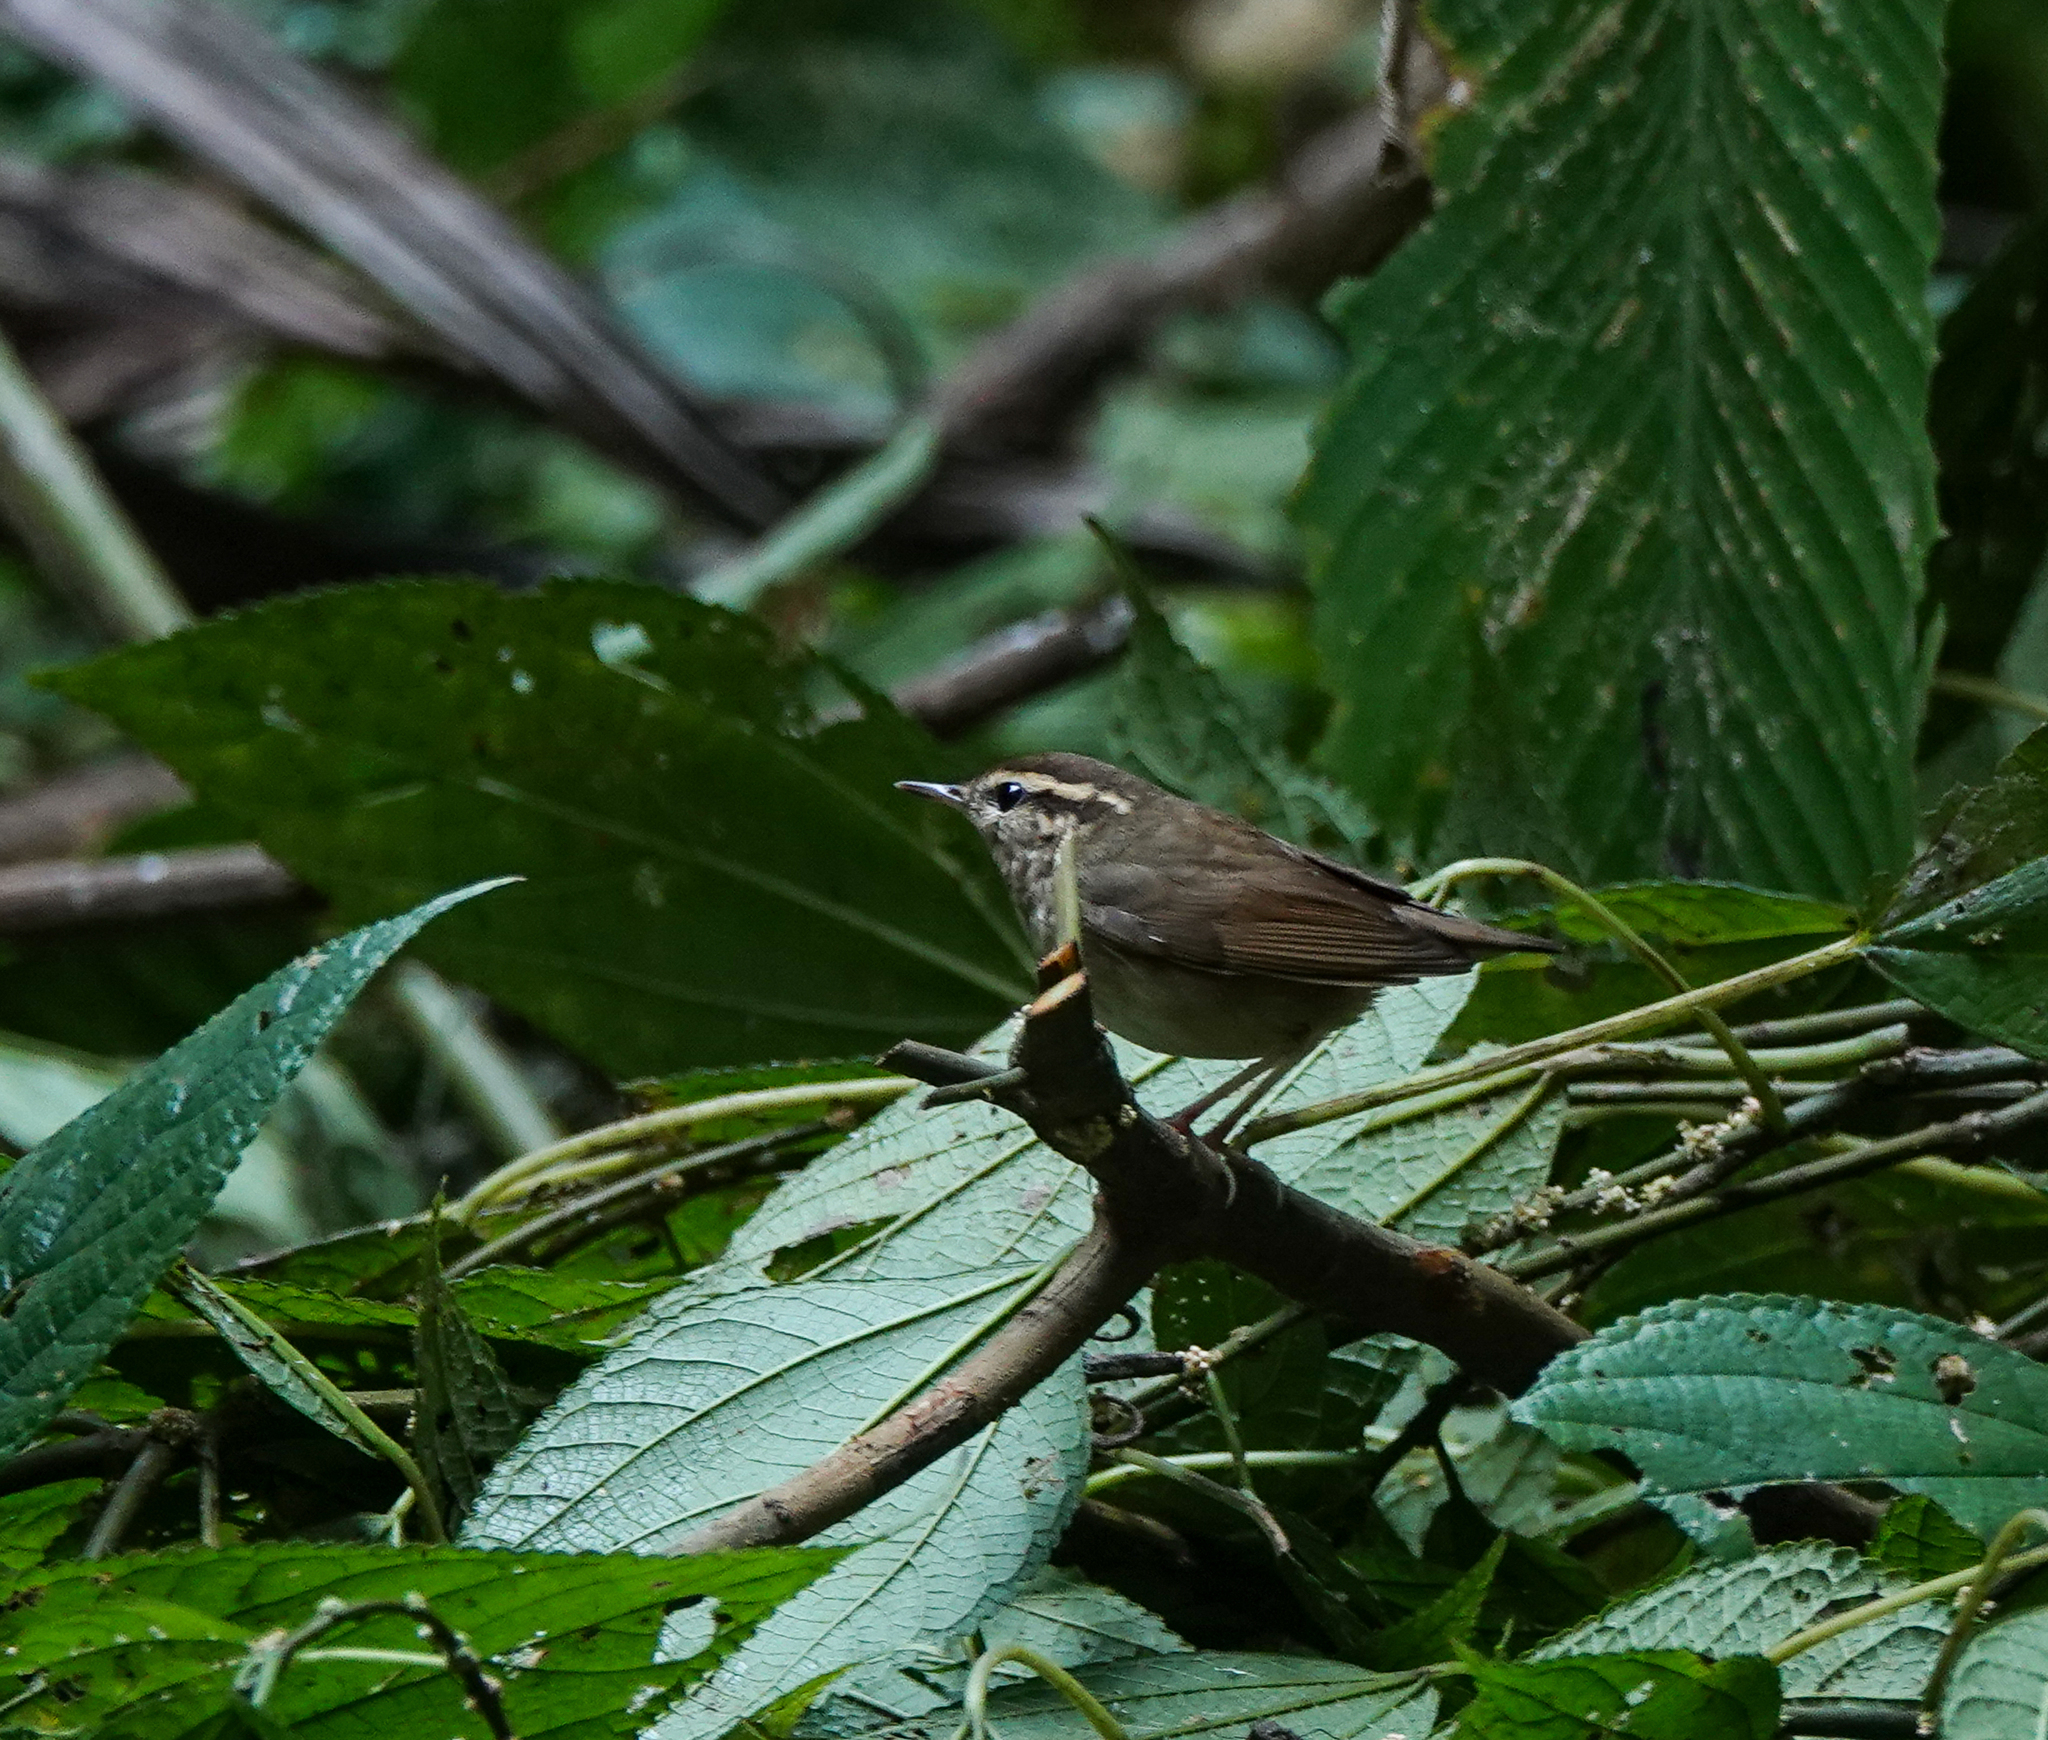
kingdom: Animalia
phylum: Chordata
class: Aves
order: Passeriformes
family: Cettiidae
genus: Urosphena
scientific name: Urosphena squameiceps
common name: Asian stubtail
